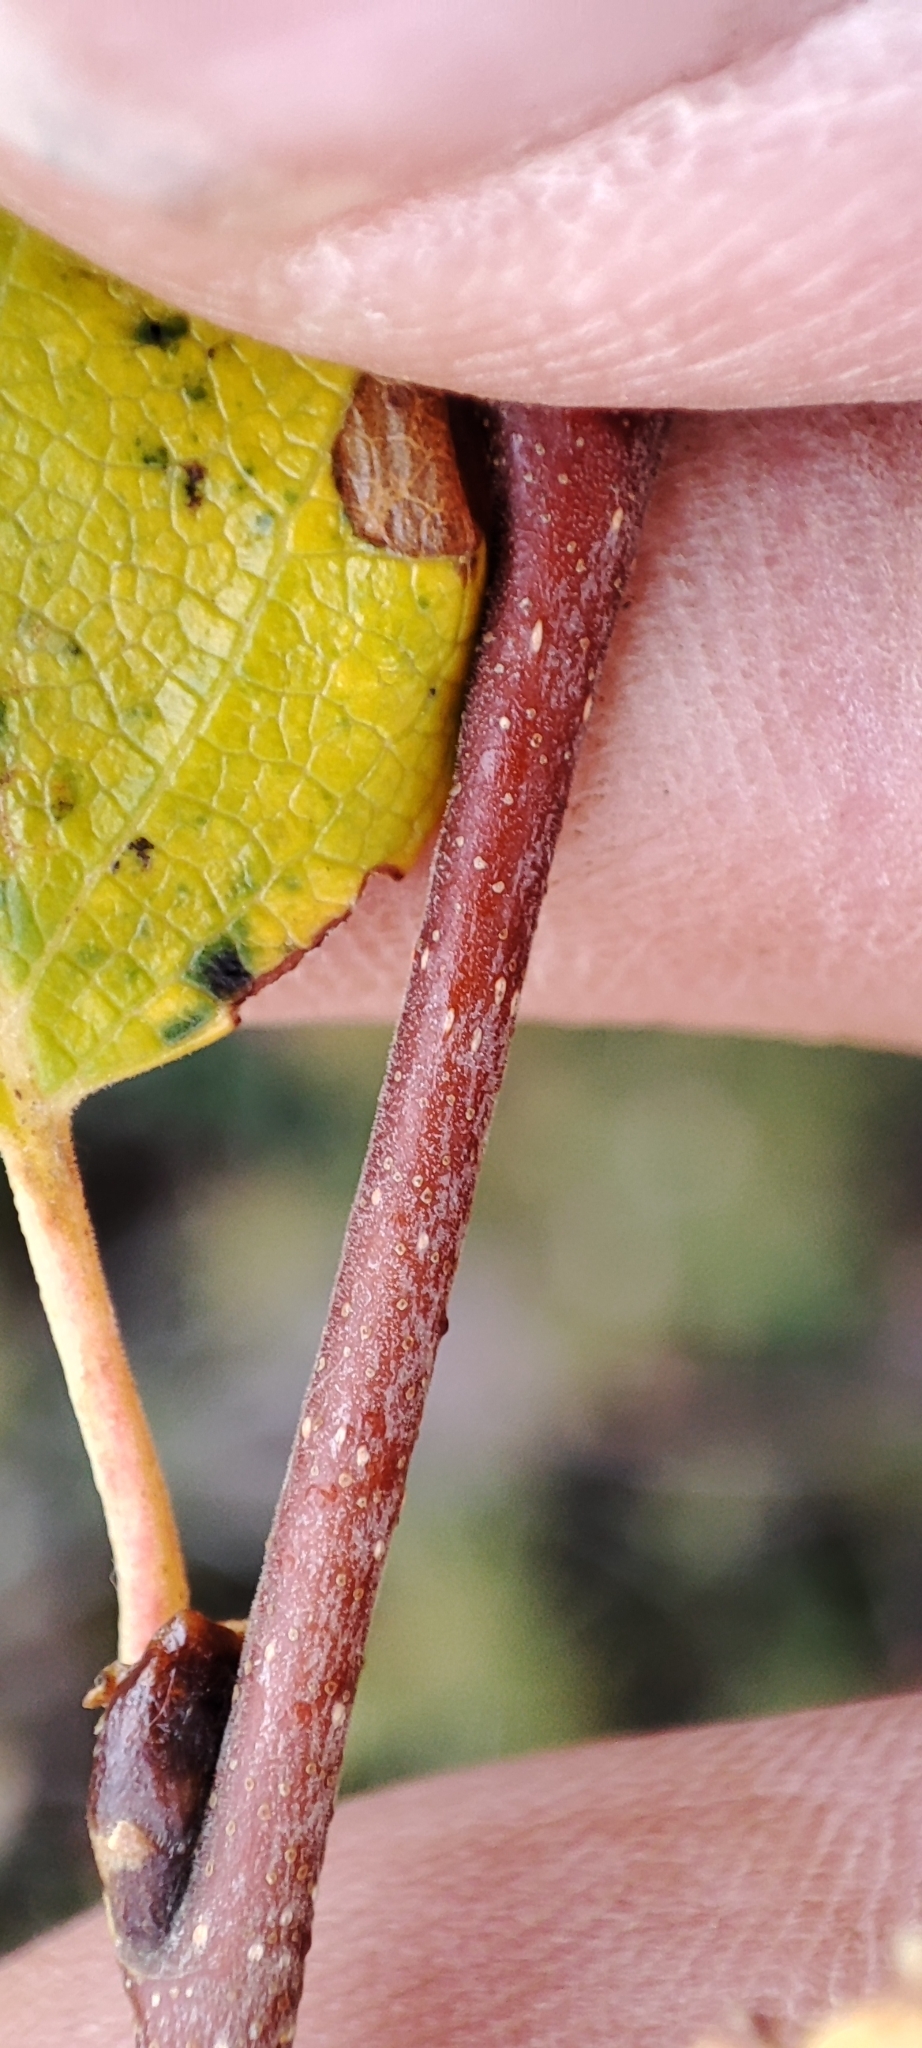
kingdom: Plantae
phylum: Tracheophyta
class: Magnoliopsida
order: Fagales
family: Betulaceae
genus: Betula
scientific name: Betula pubescens
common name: Downy birch
